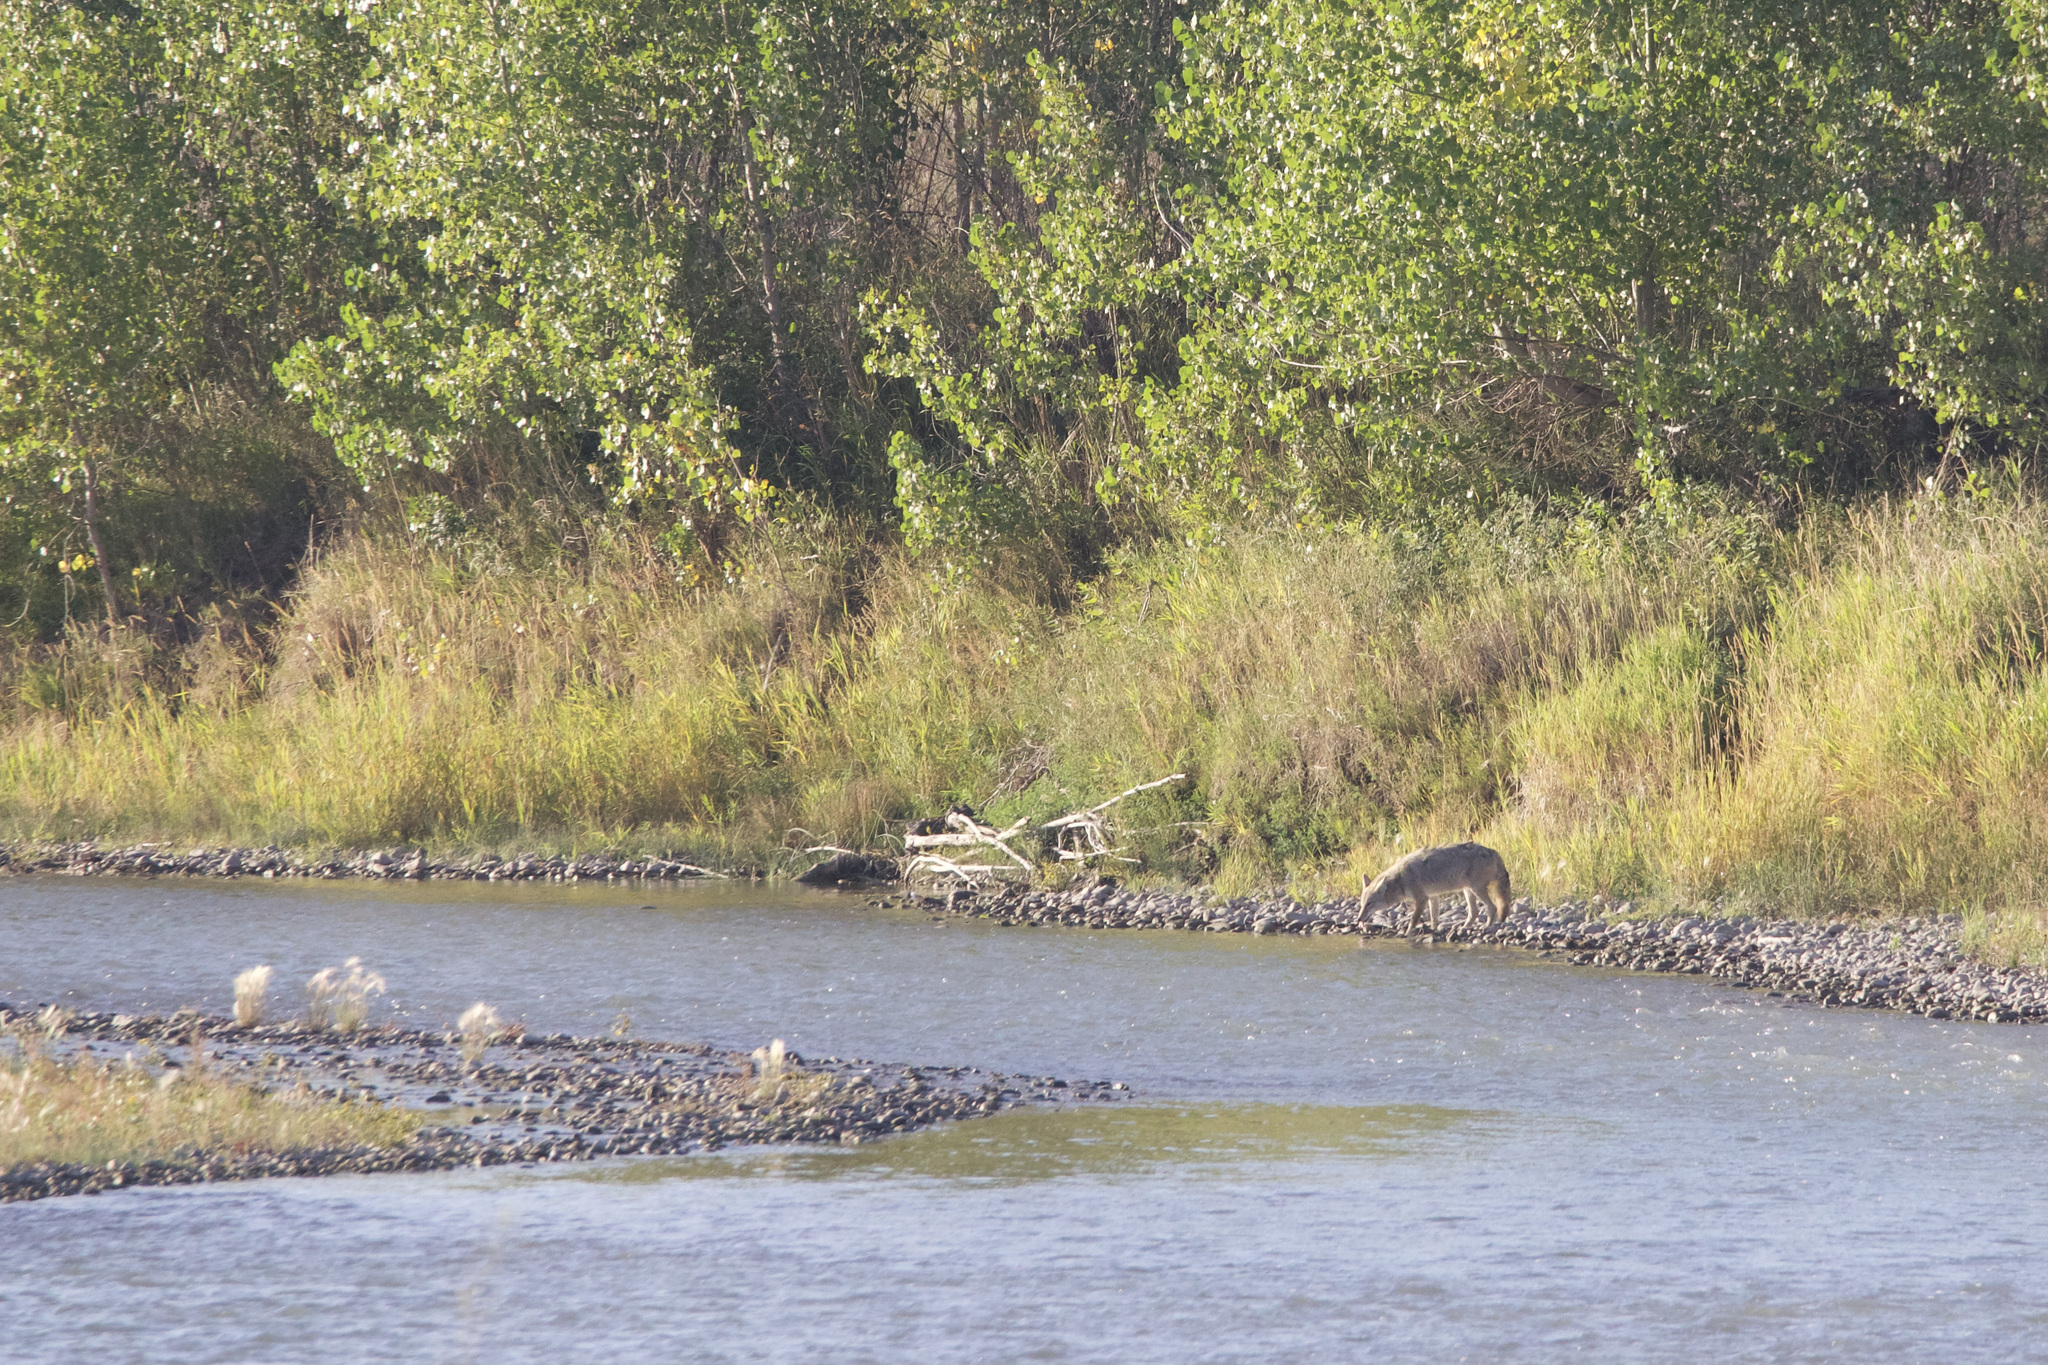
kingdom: Animalia
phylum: Chordata
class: Mammalia
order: Carnivora
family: Canidae
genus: Canis
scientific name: Canis latrans
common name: Coyote
